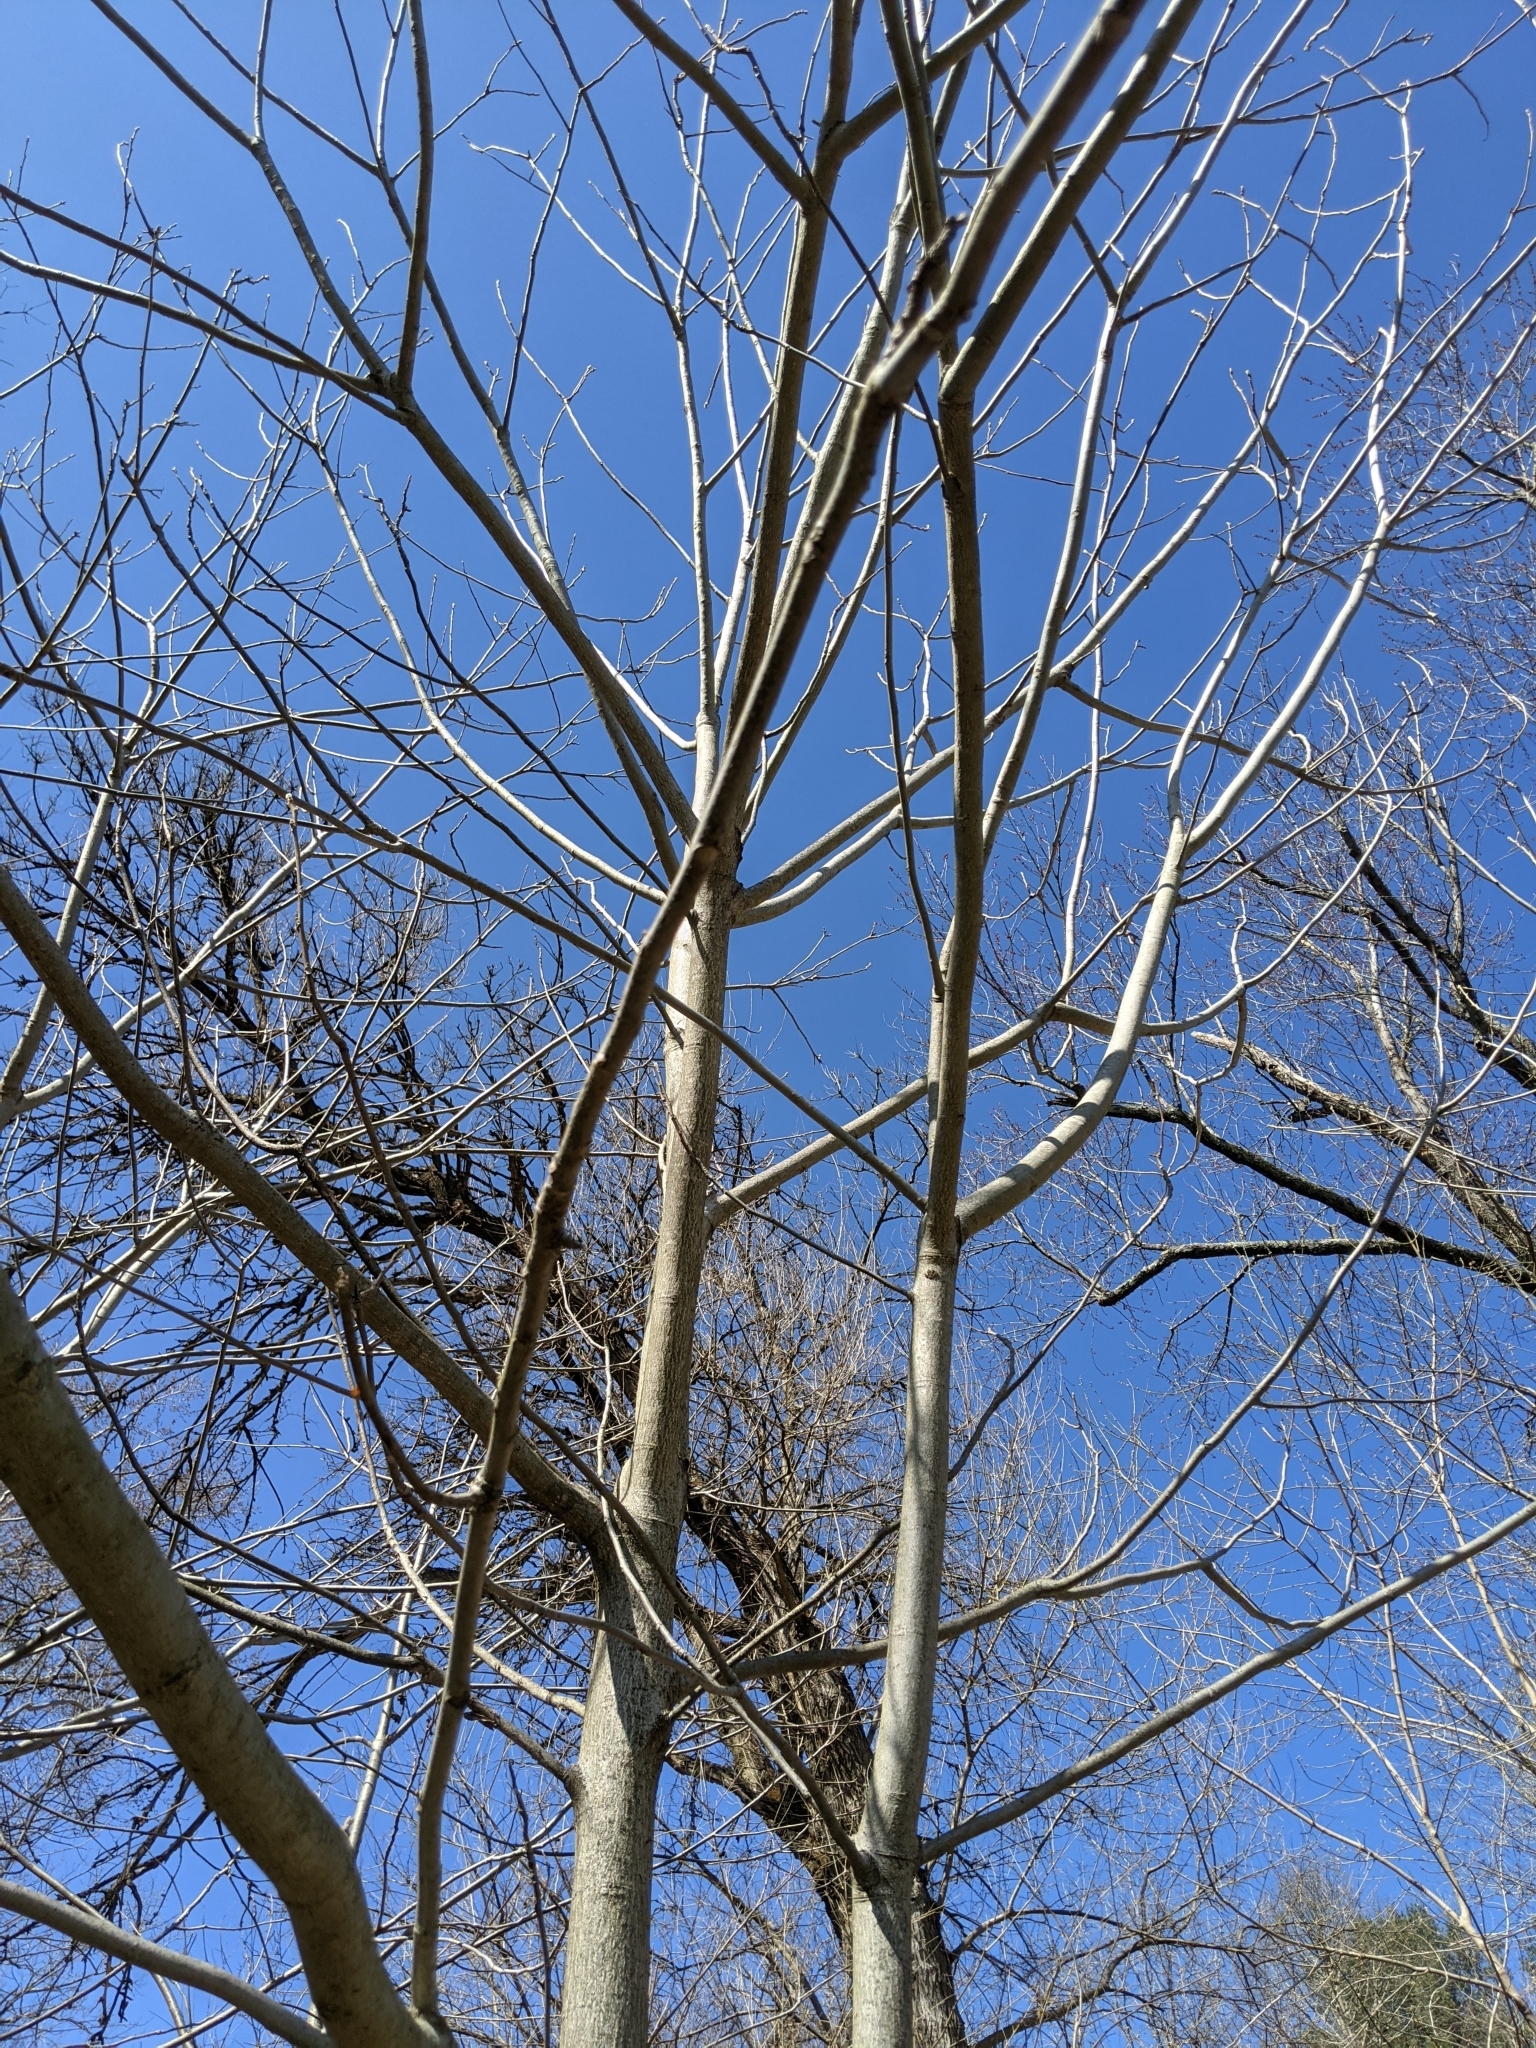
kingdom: Plantae
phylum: Tracheophyta
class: Magnoliopsida
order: Fagales
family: Juglandaceae
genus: Juglans
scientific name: Juglans cinerea
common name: Butternut
